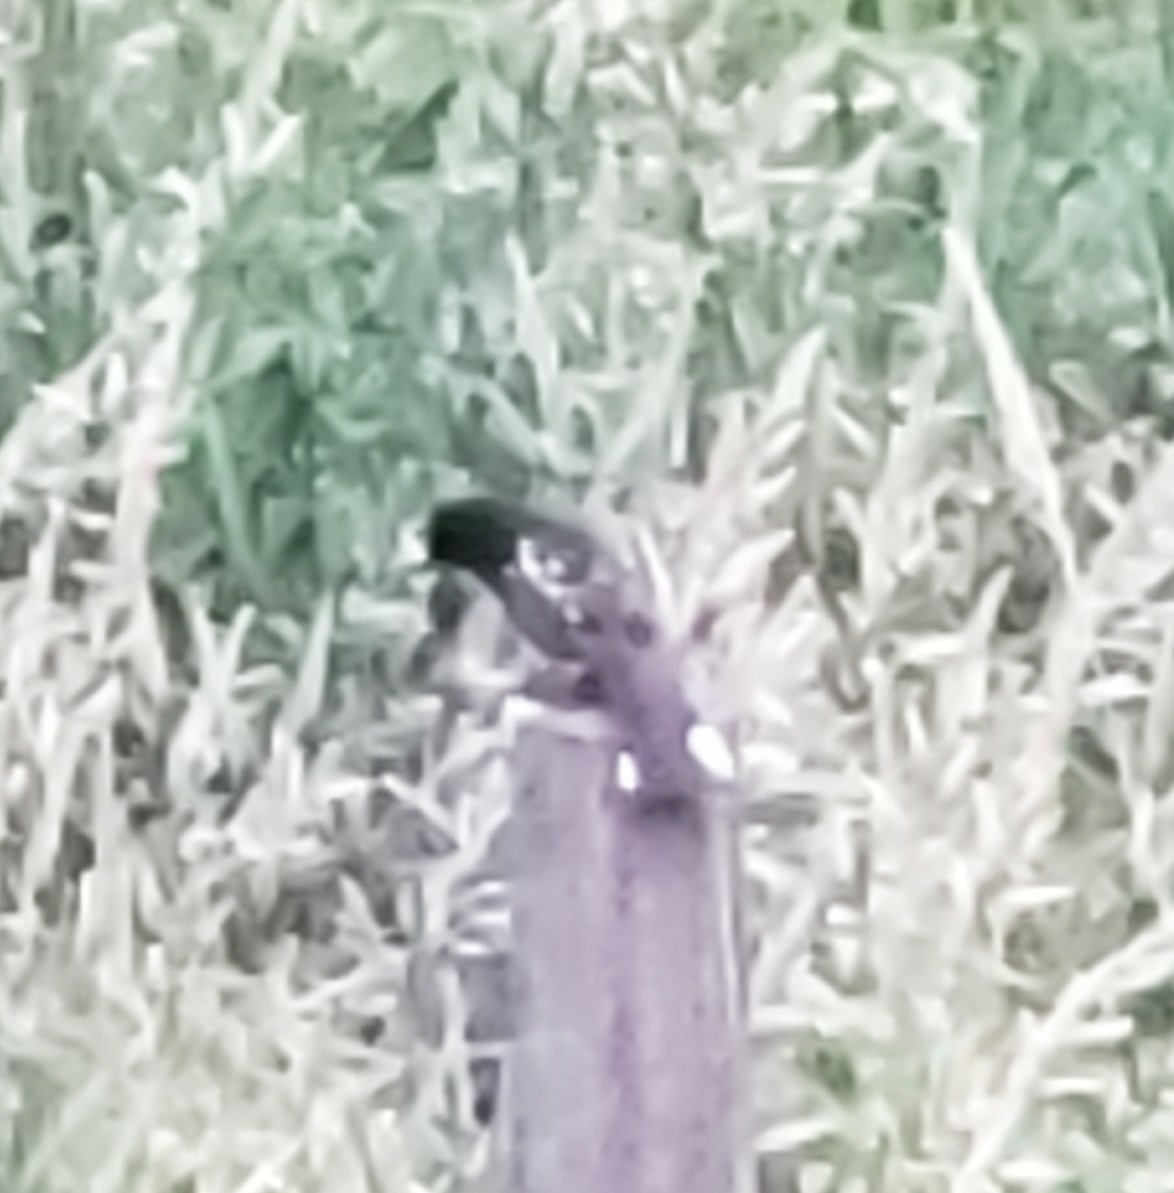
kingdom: Animalia
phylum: Chordata
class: Aves
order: Passeriformes
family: Passerellidae
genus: Pipilo
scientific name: Pipilo maculatus
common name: Spotted towhee
